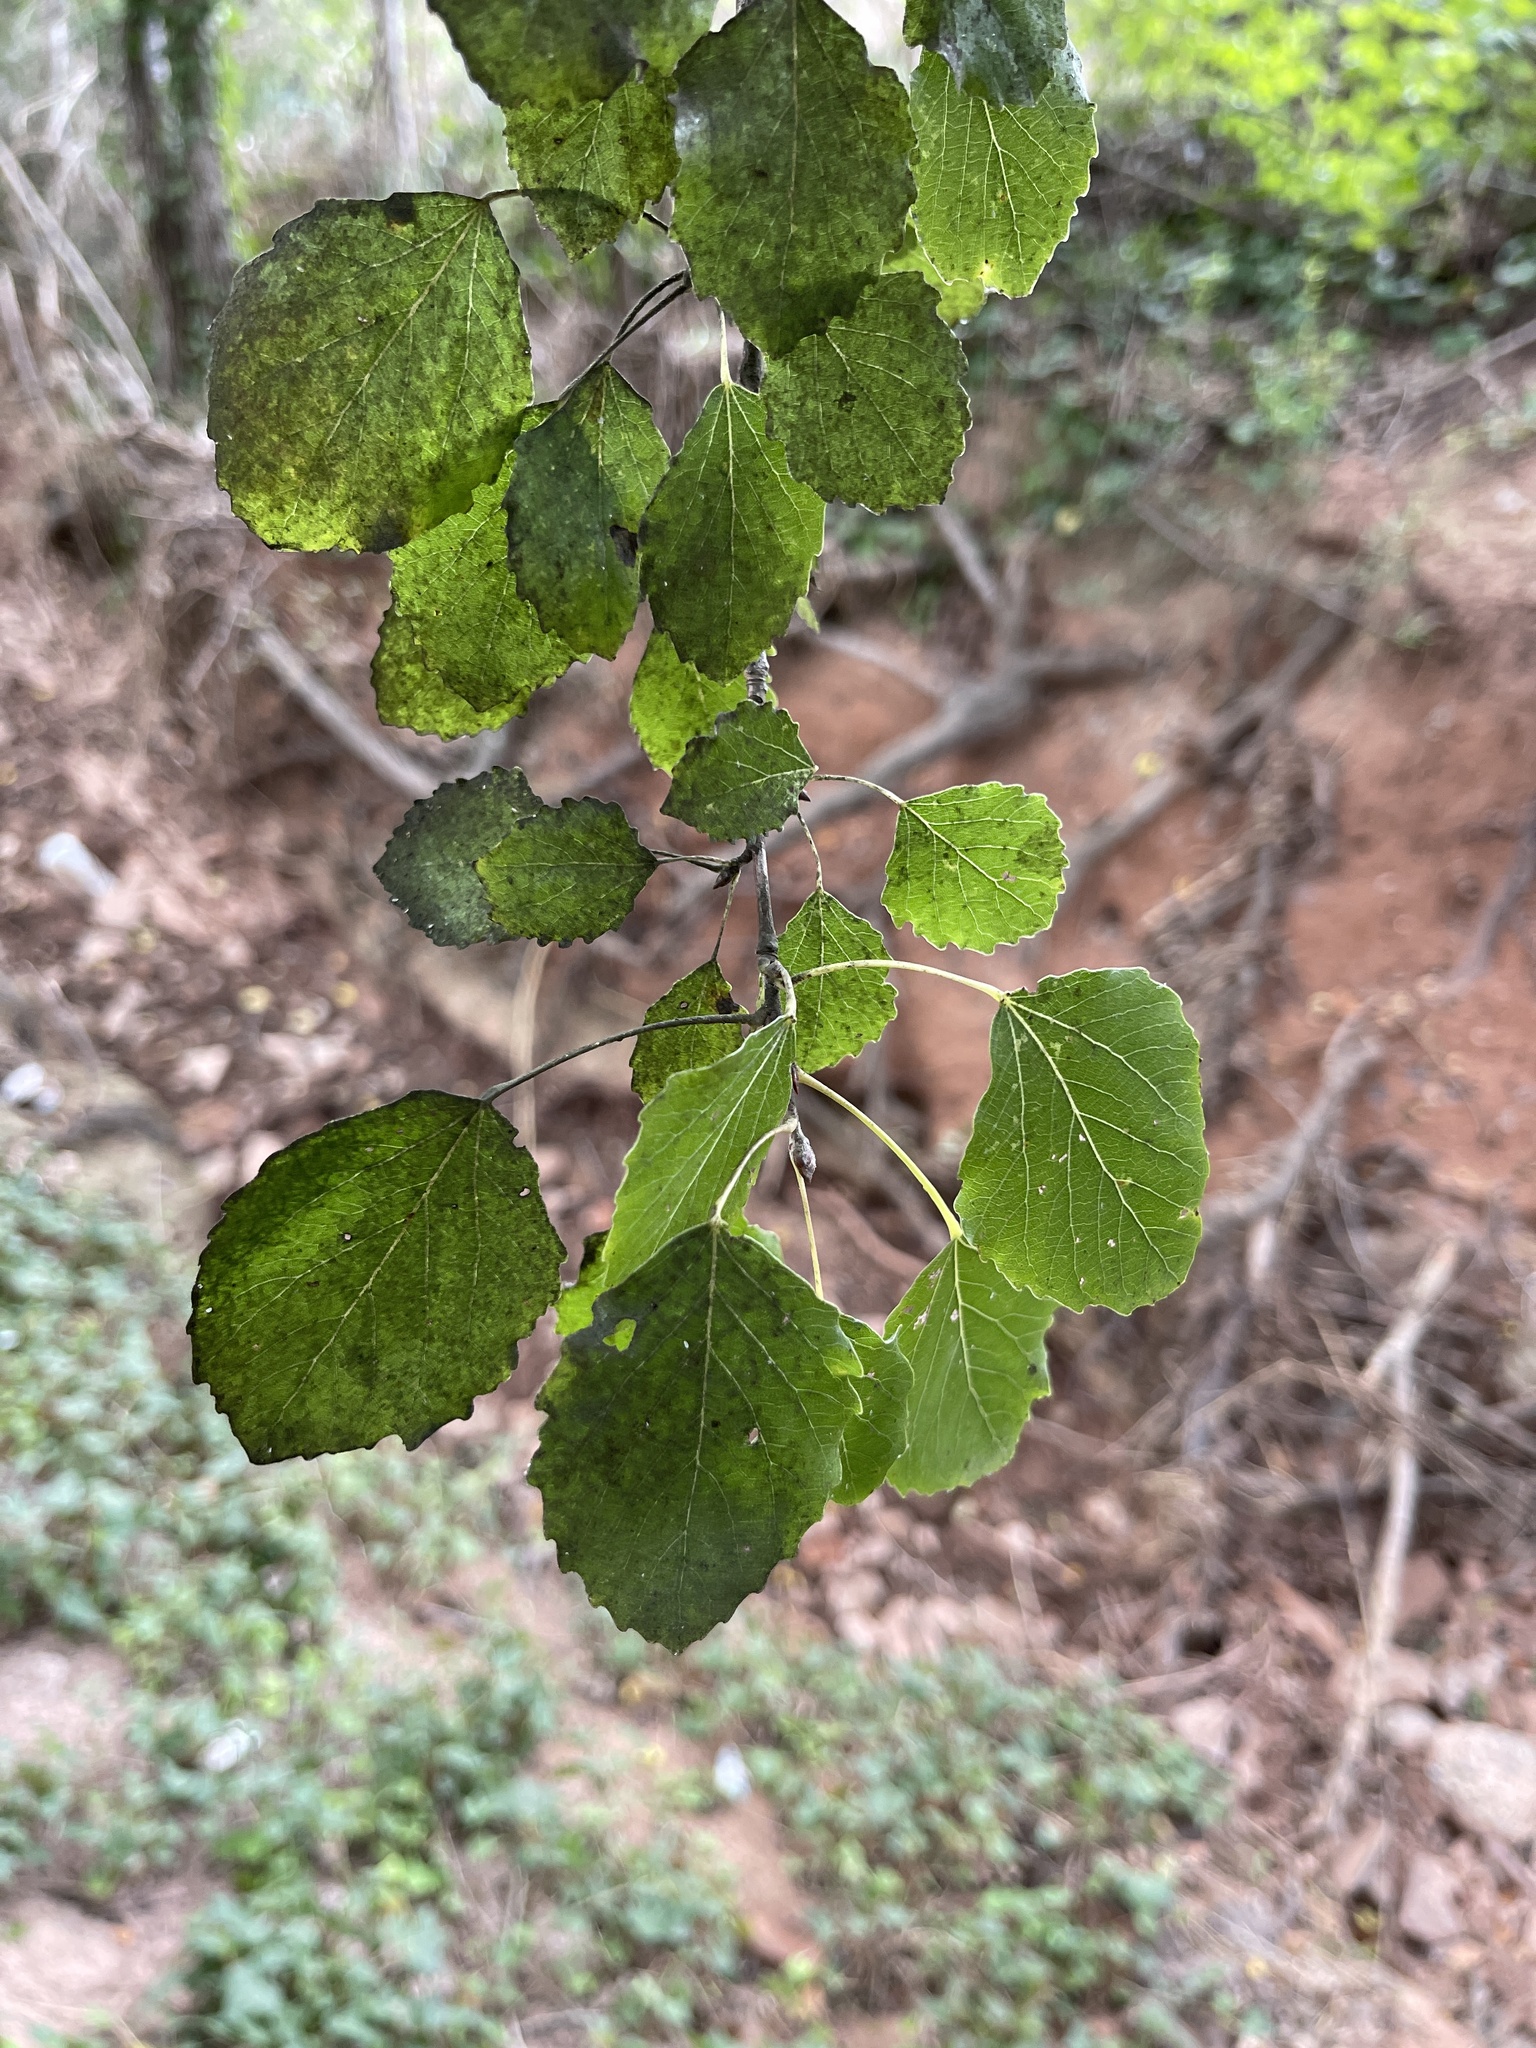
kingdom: Plantae
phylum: Tracheophyta
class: Magnoliopsida
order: Malpighiales
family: Salicaceae
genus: Populus
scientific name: Populus canescens
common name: Gray poplar
